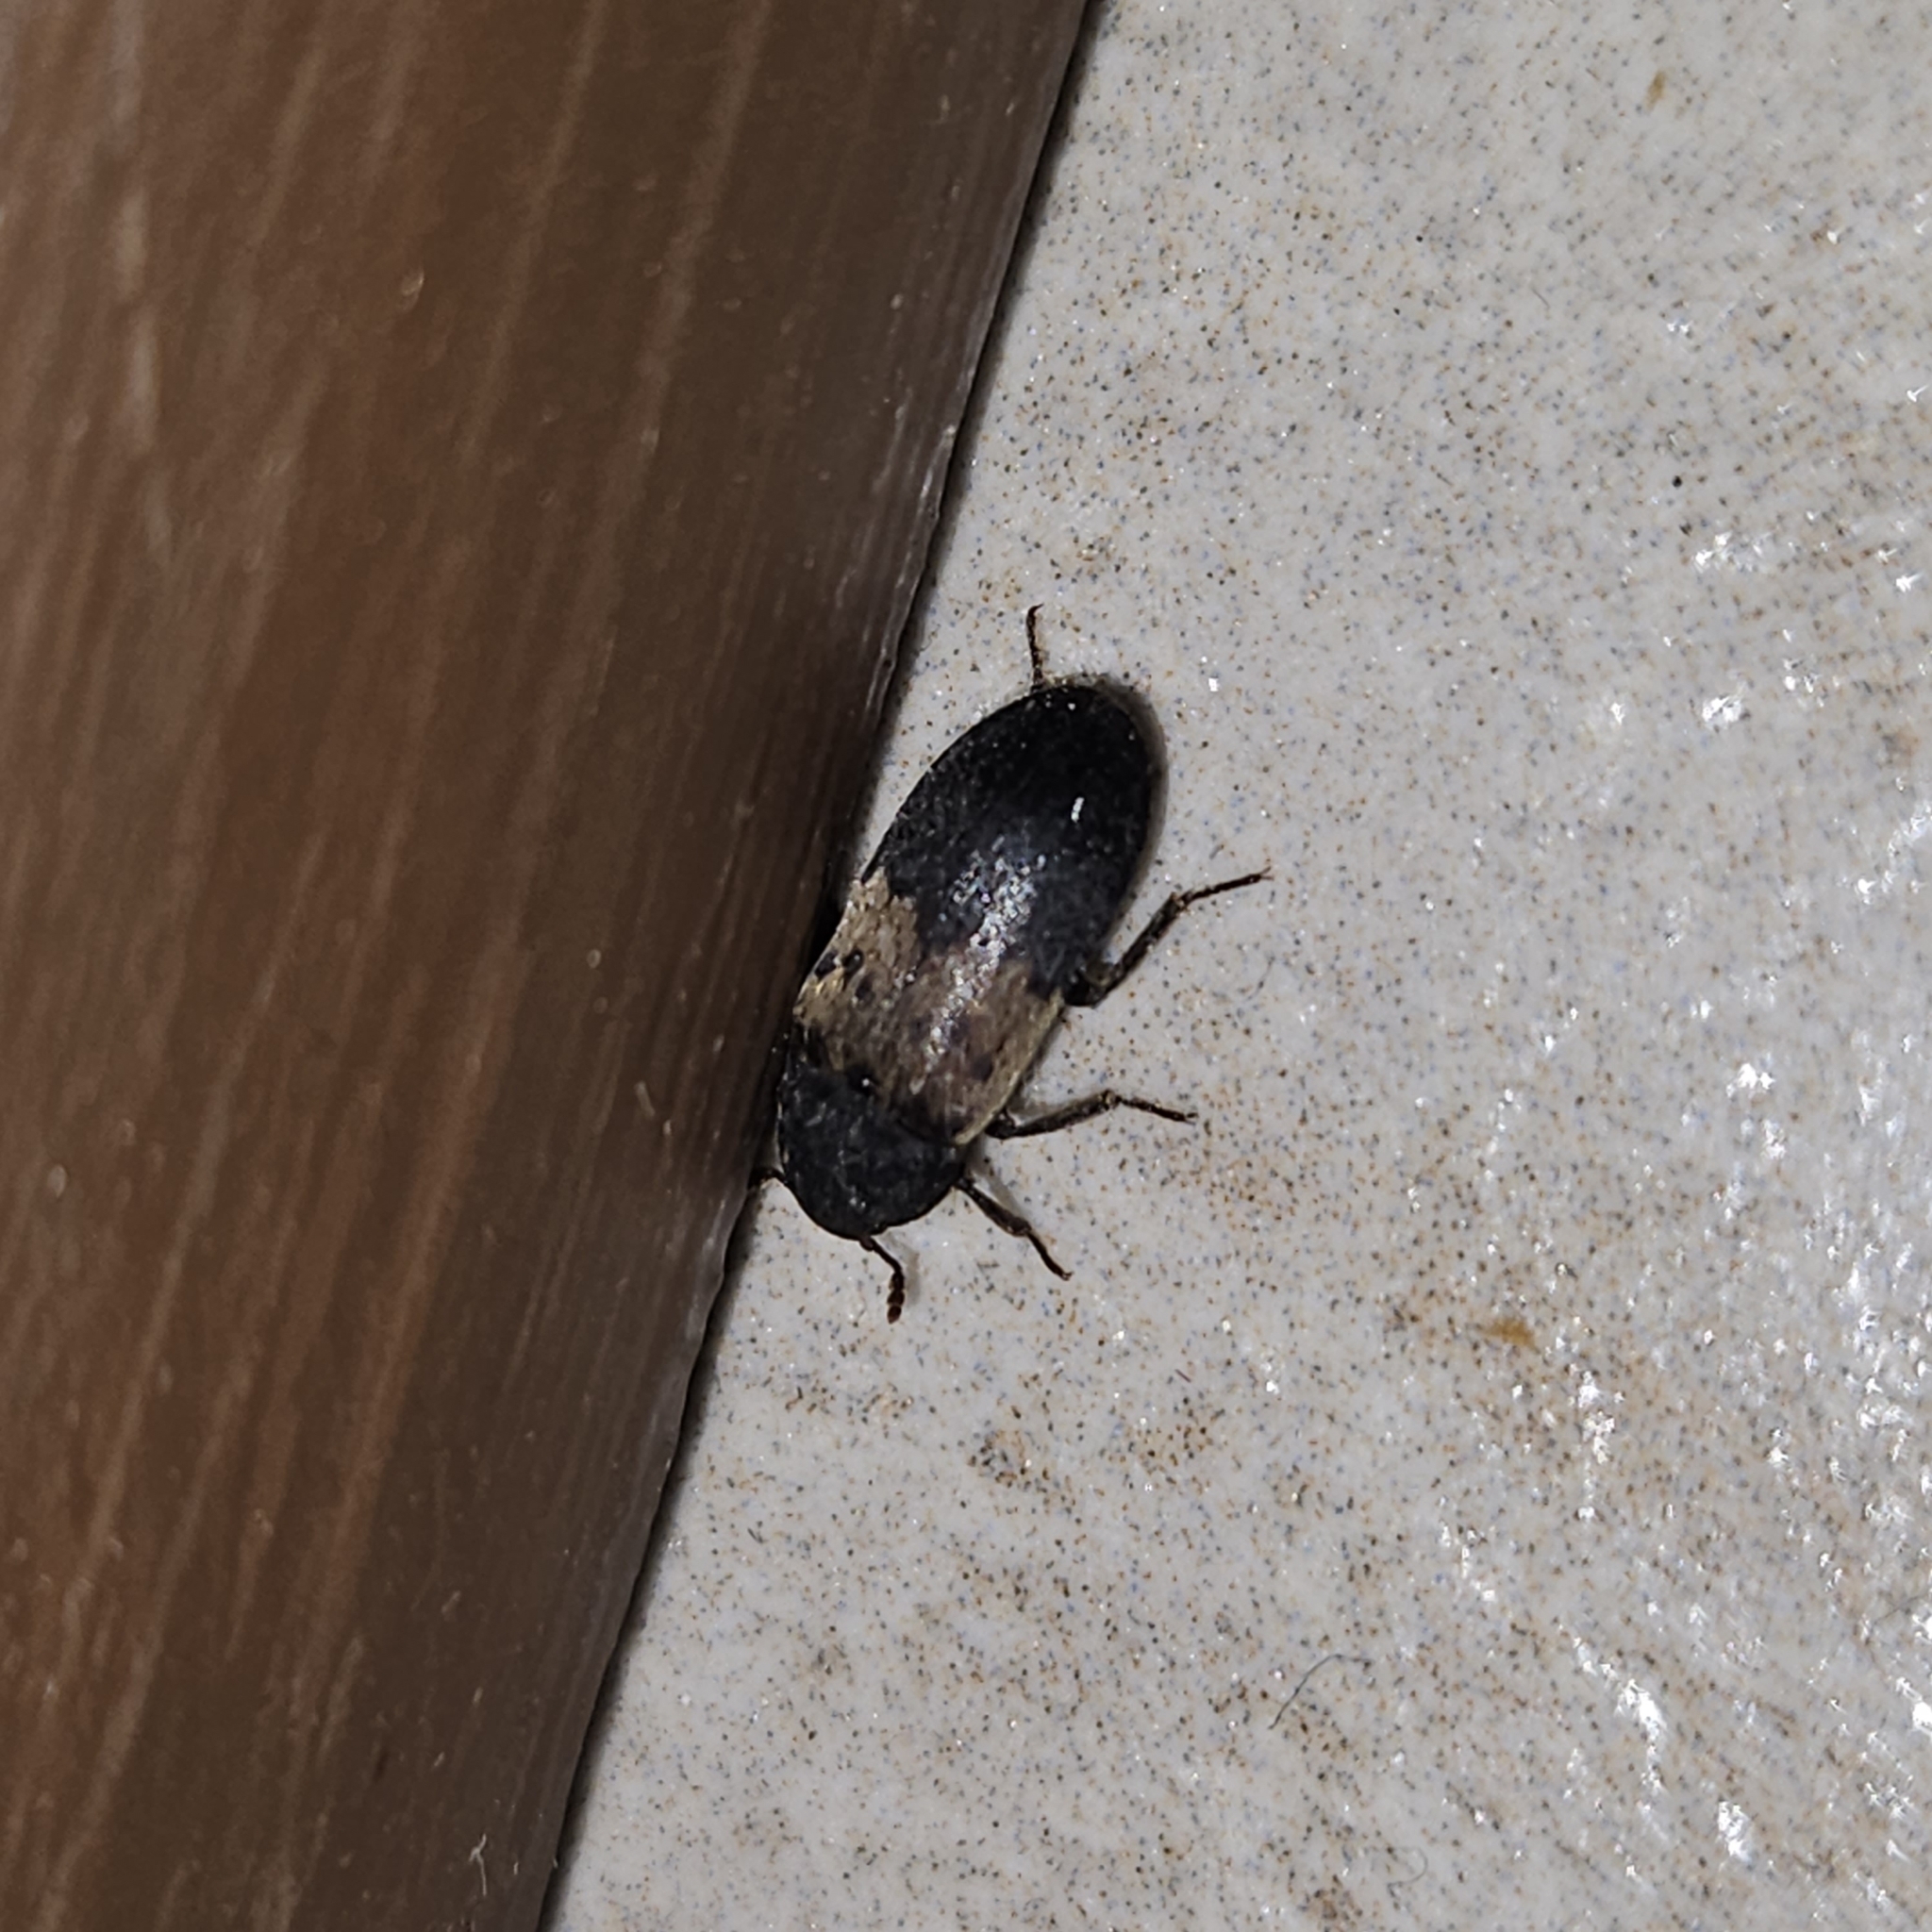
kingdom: Animalia
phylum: Arthropoda
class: Insecta
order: Coleoptera
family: Dermestidae
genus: Dermestes
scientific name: Dermestes lardarius
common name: Larder beetle
